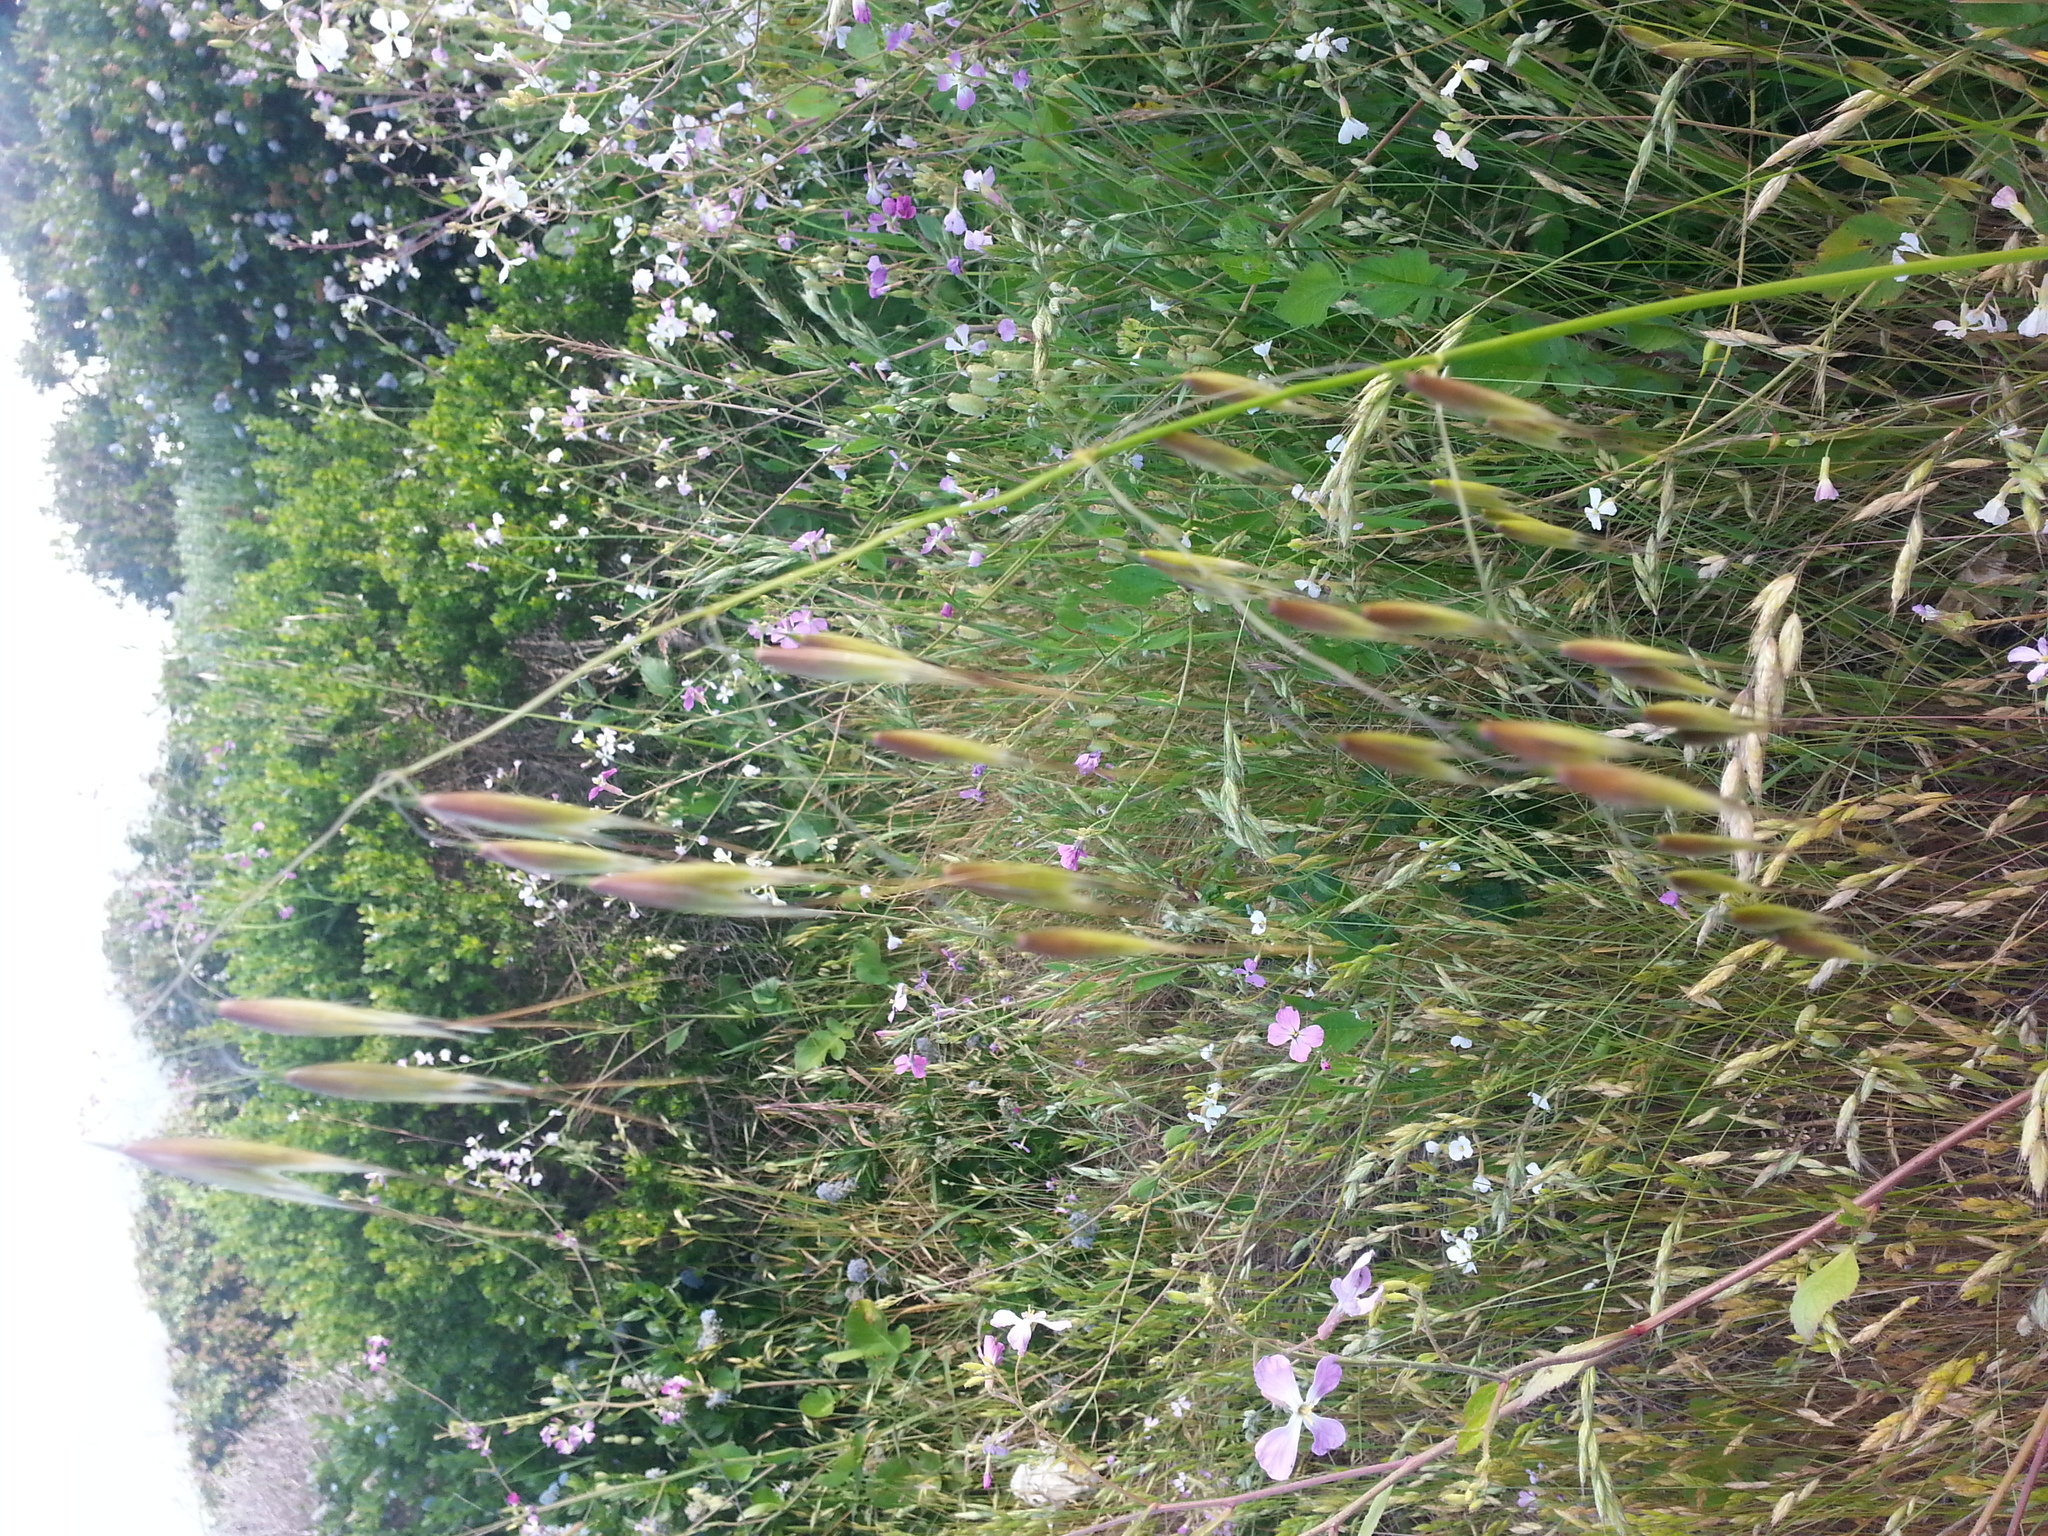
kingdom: Plantae
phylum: Tracheophyta
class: Liliopsida
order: Poales
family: Poaceae
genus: Avena
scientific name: Avena fatua
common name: Wild oat
